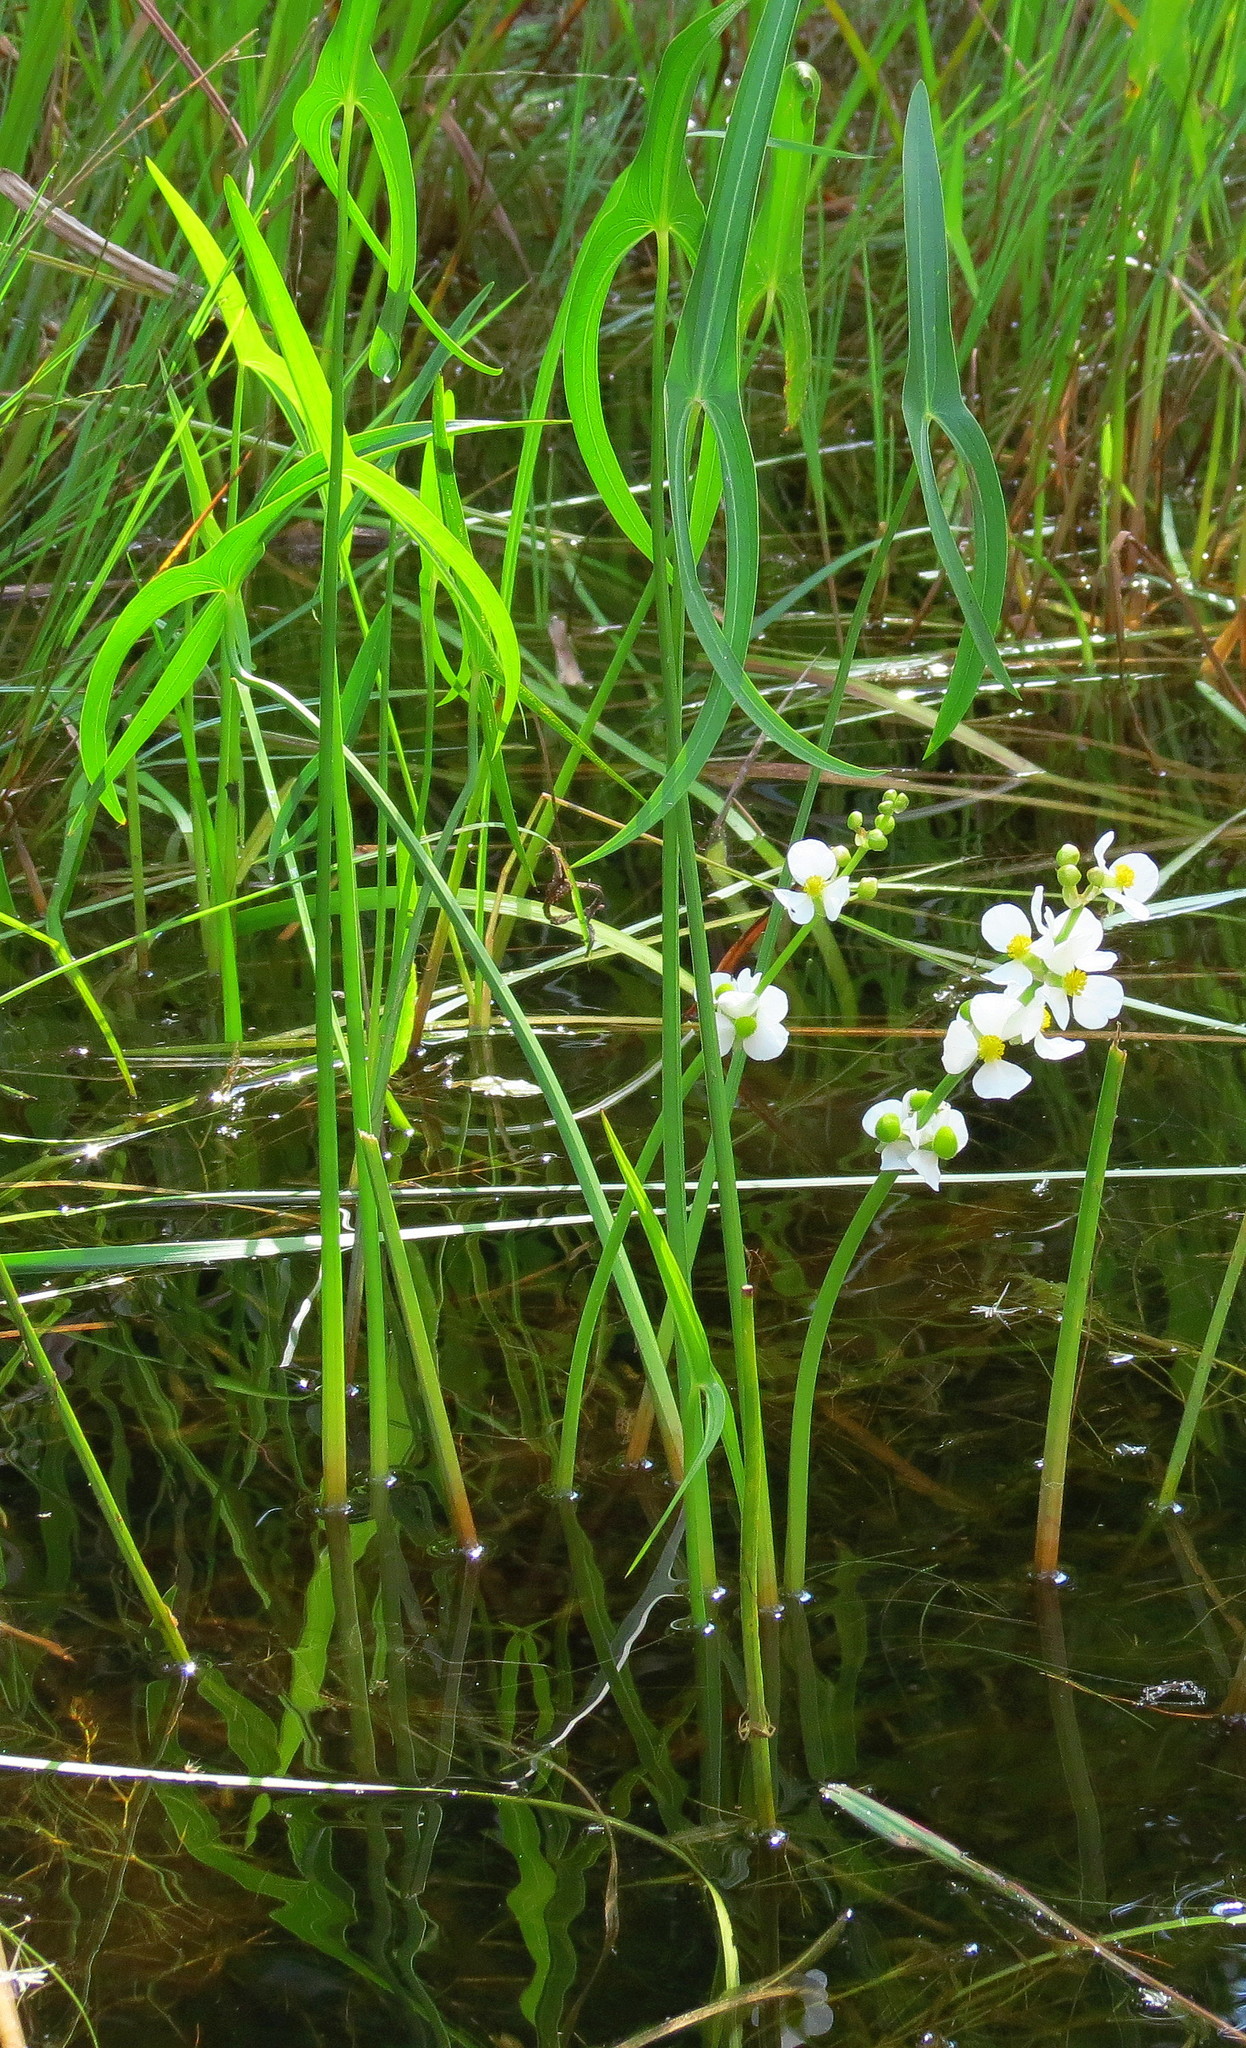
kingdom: Plantae
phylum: Tracheophyta
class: Liliopsida
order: Alismatales
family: Alismataceae
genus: Sagittaria
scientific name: Sagittaria latifolia
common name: Duck-potato
